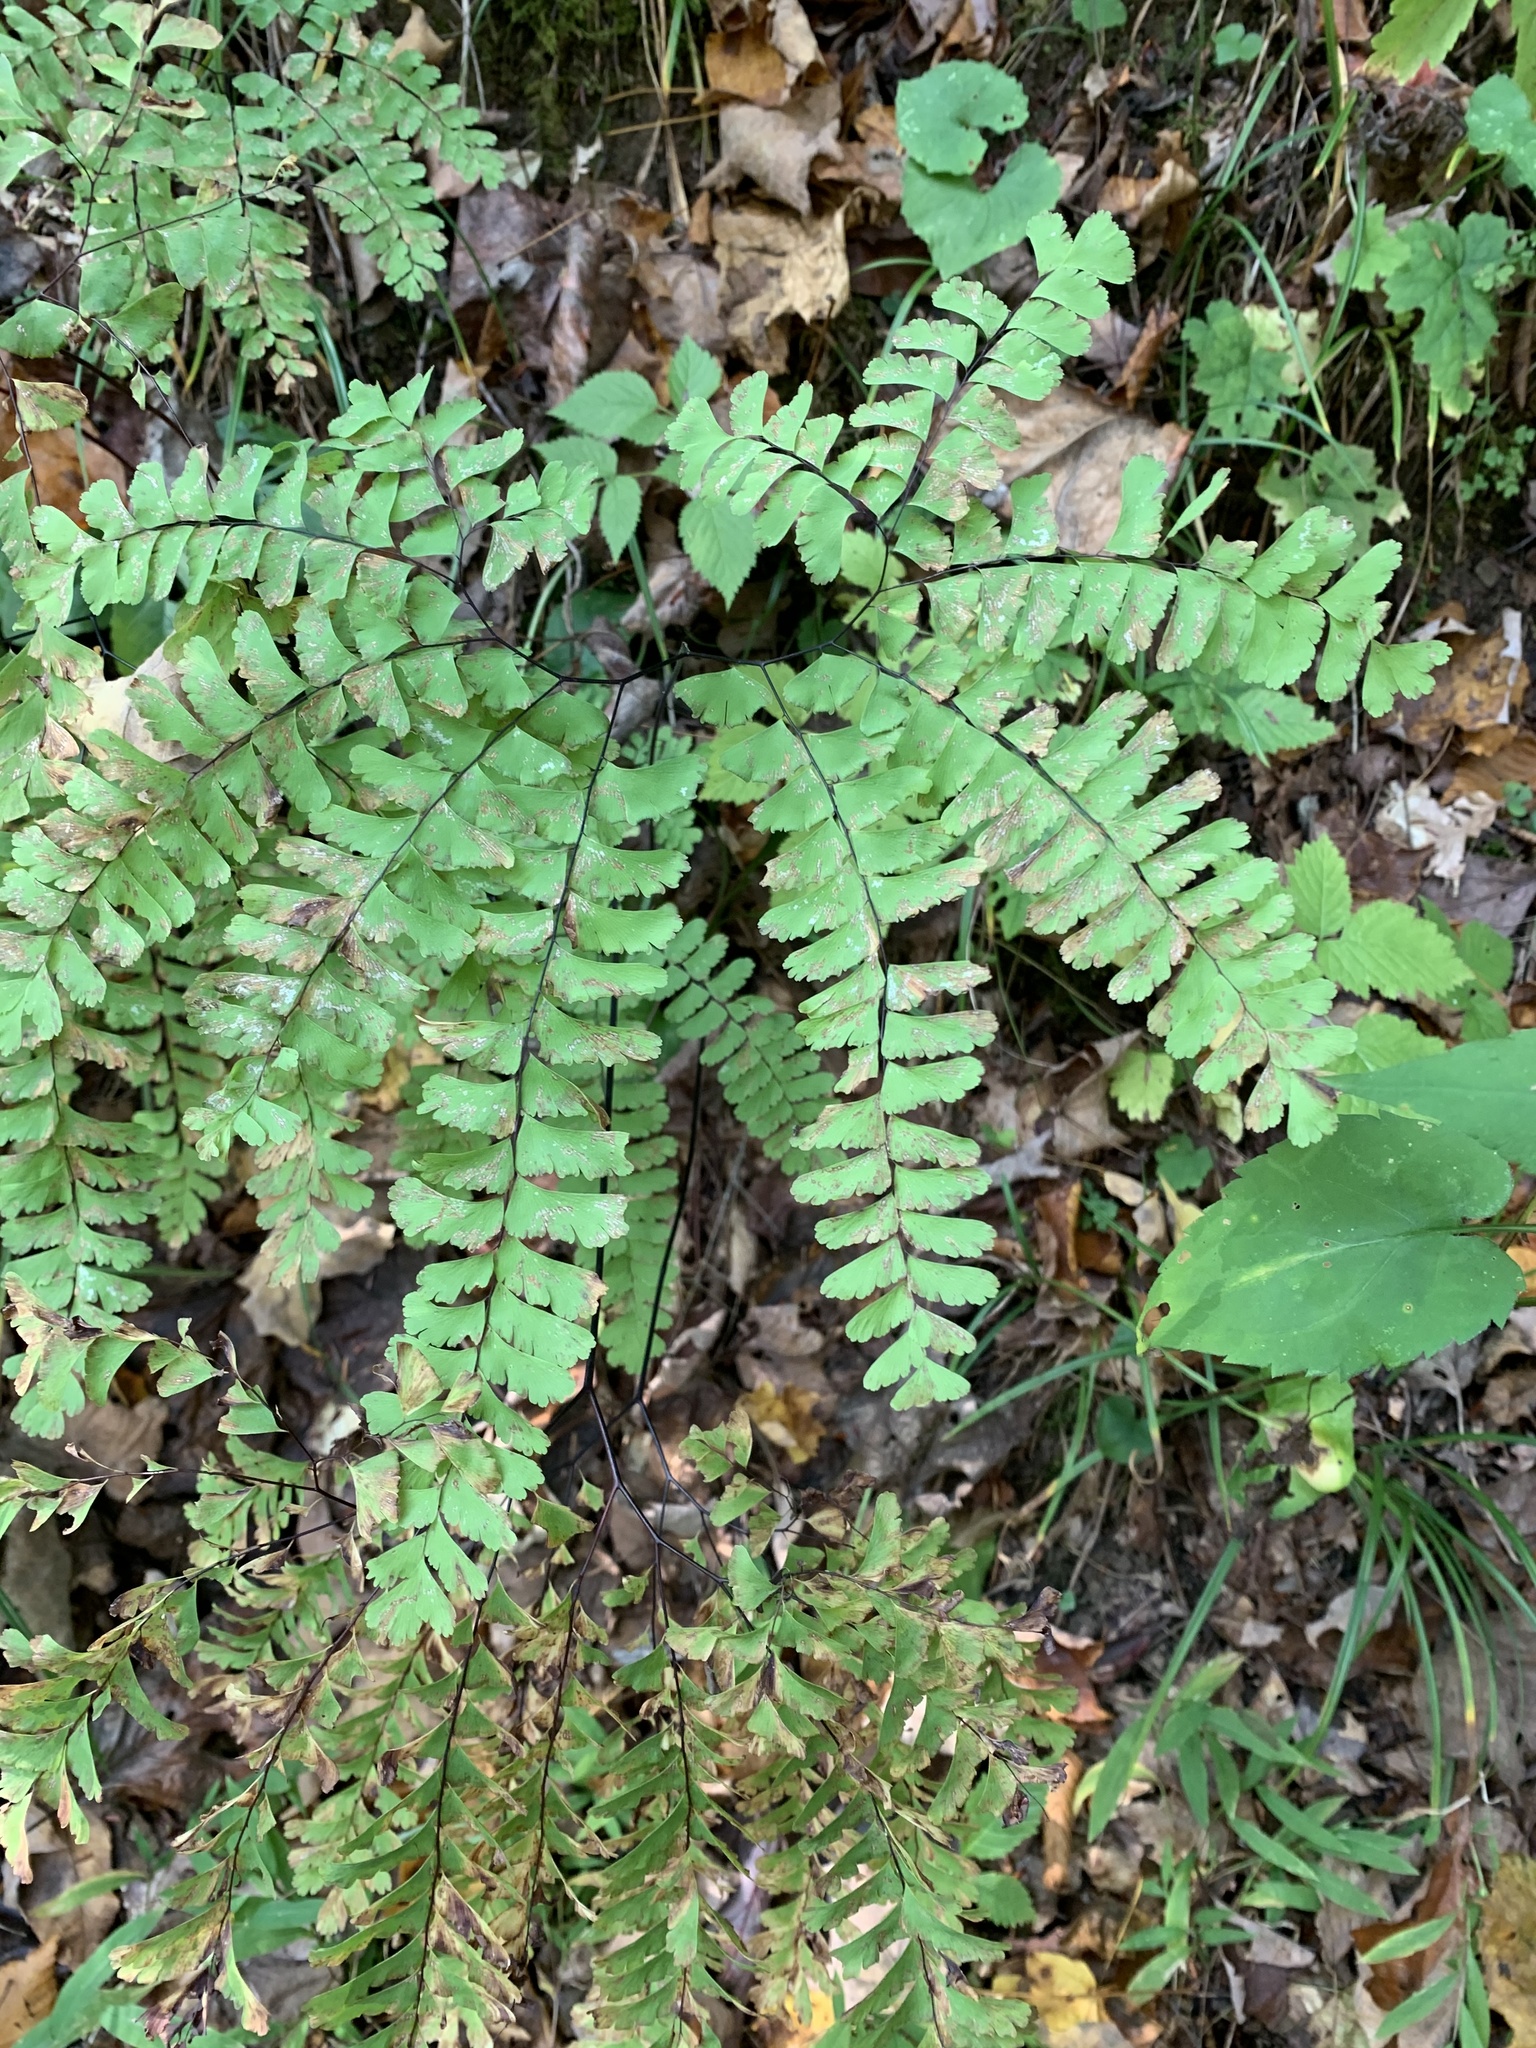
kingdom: Plantae
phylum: Tracheophyta
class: Polypodiopsida
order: Polypodiales
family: Pteridaceae
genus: Adiantum
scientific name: Adiantum pedatum
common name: Five-finger fern
